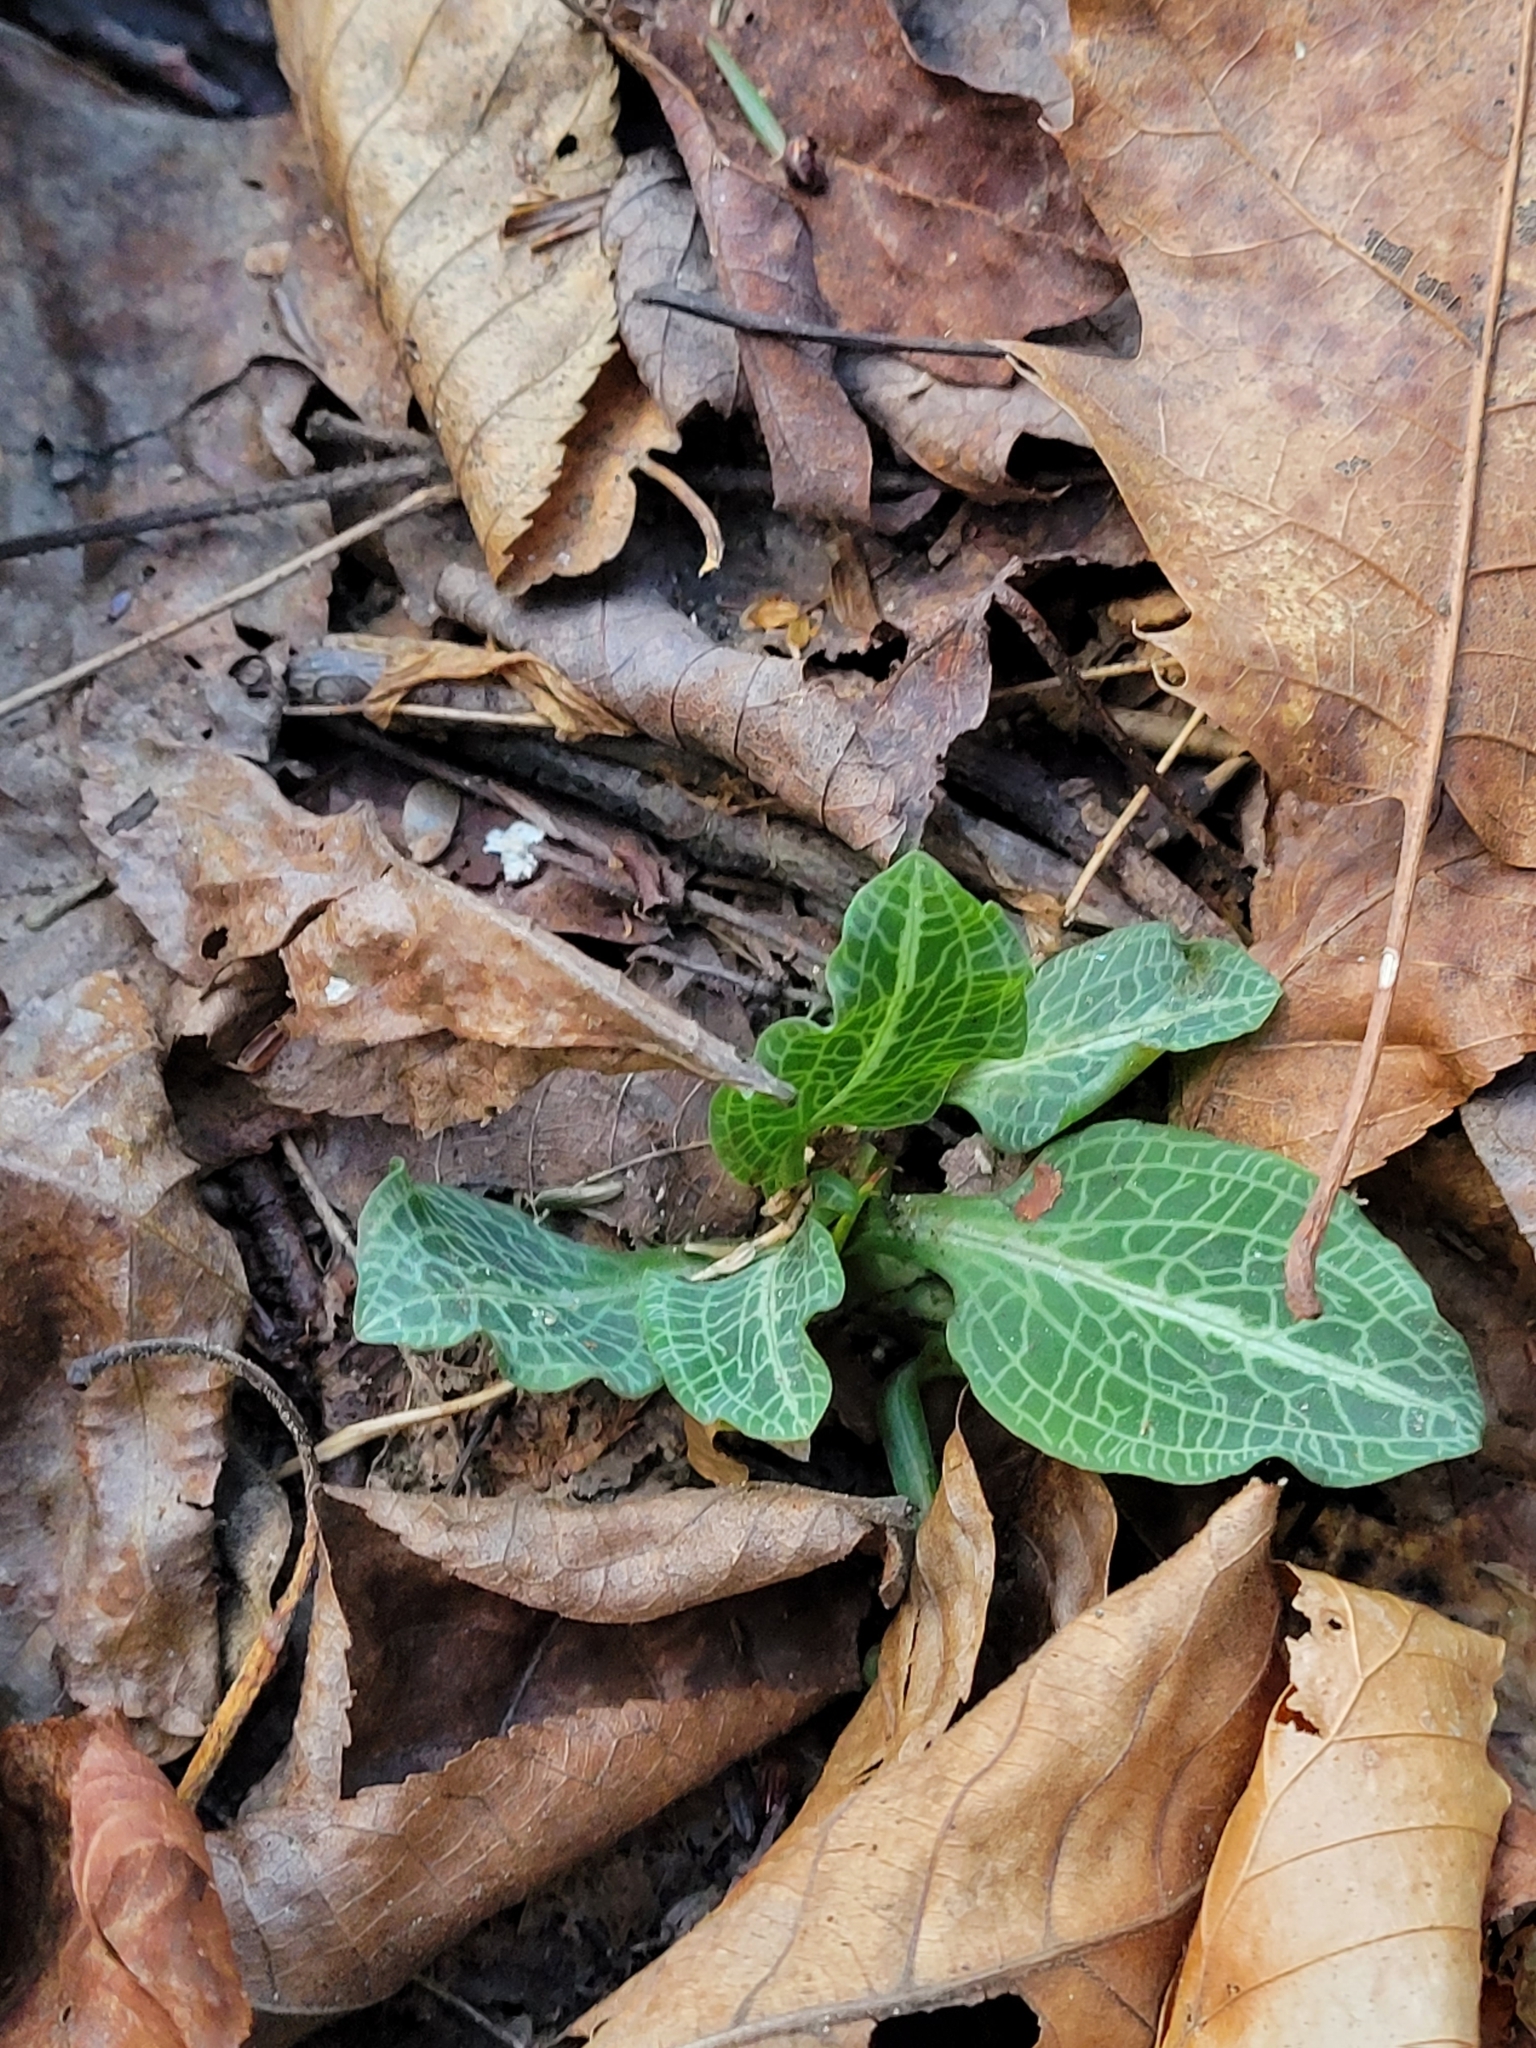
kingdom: Plantae
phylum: Tracheophyta
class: Liliopsida
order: Asparagales
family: Orchidaceae
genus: Goodyera
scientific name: Goodyera pubescens
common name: Downy rattlesnake-plantain
